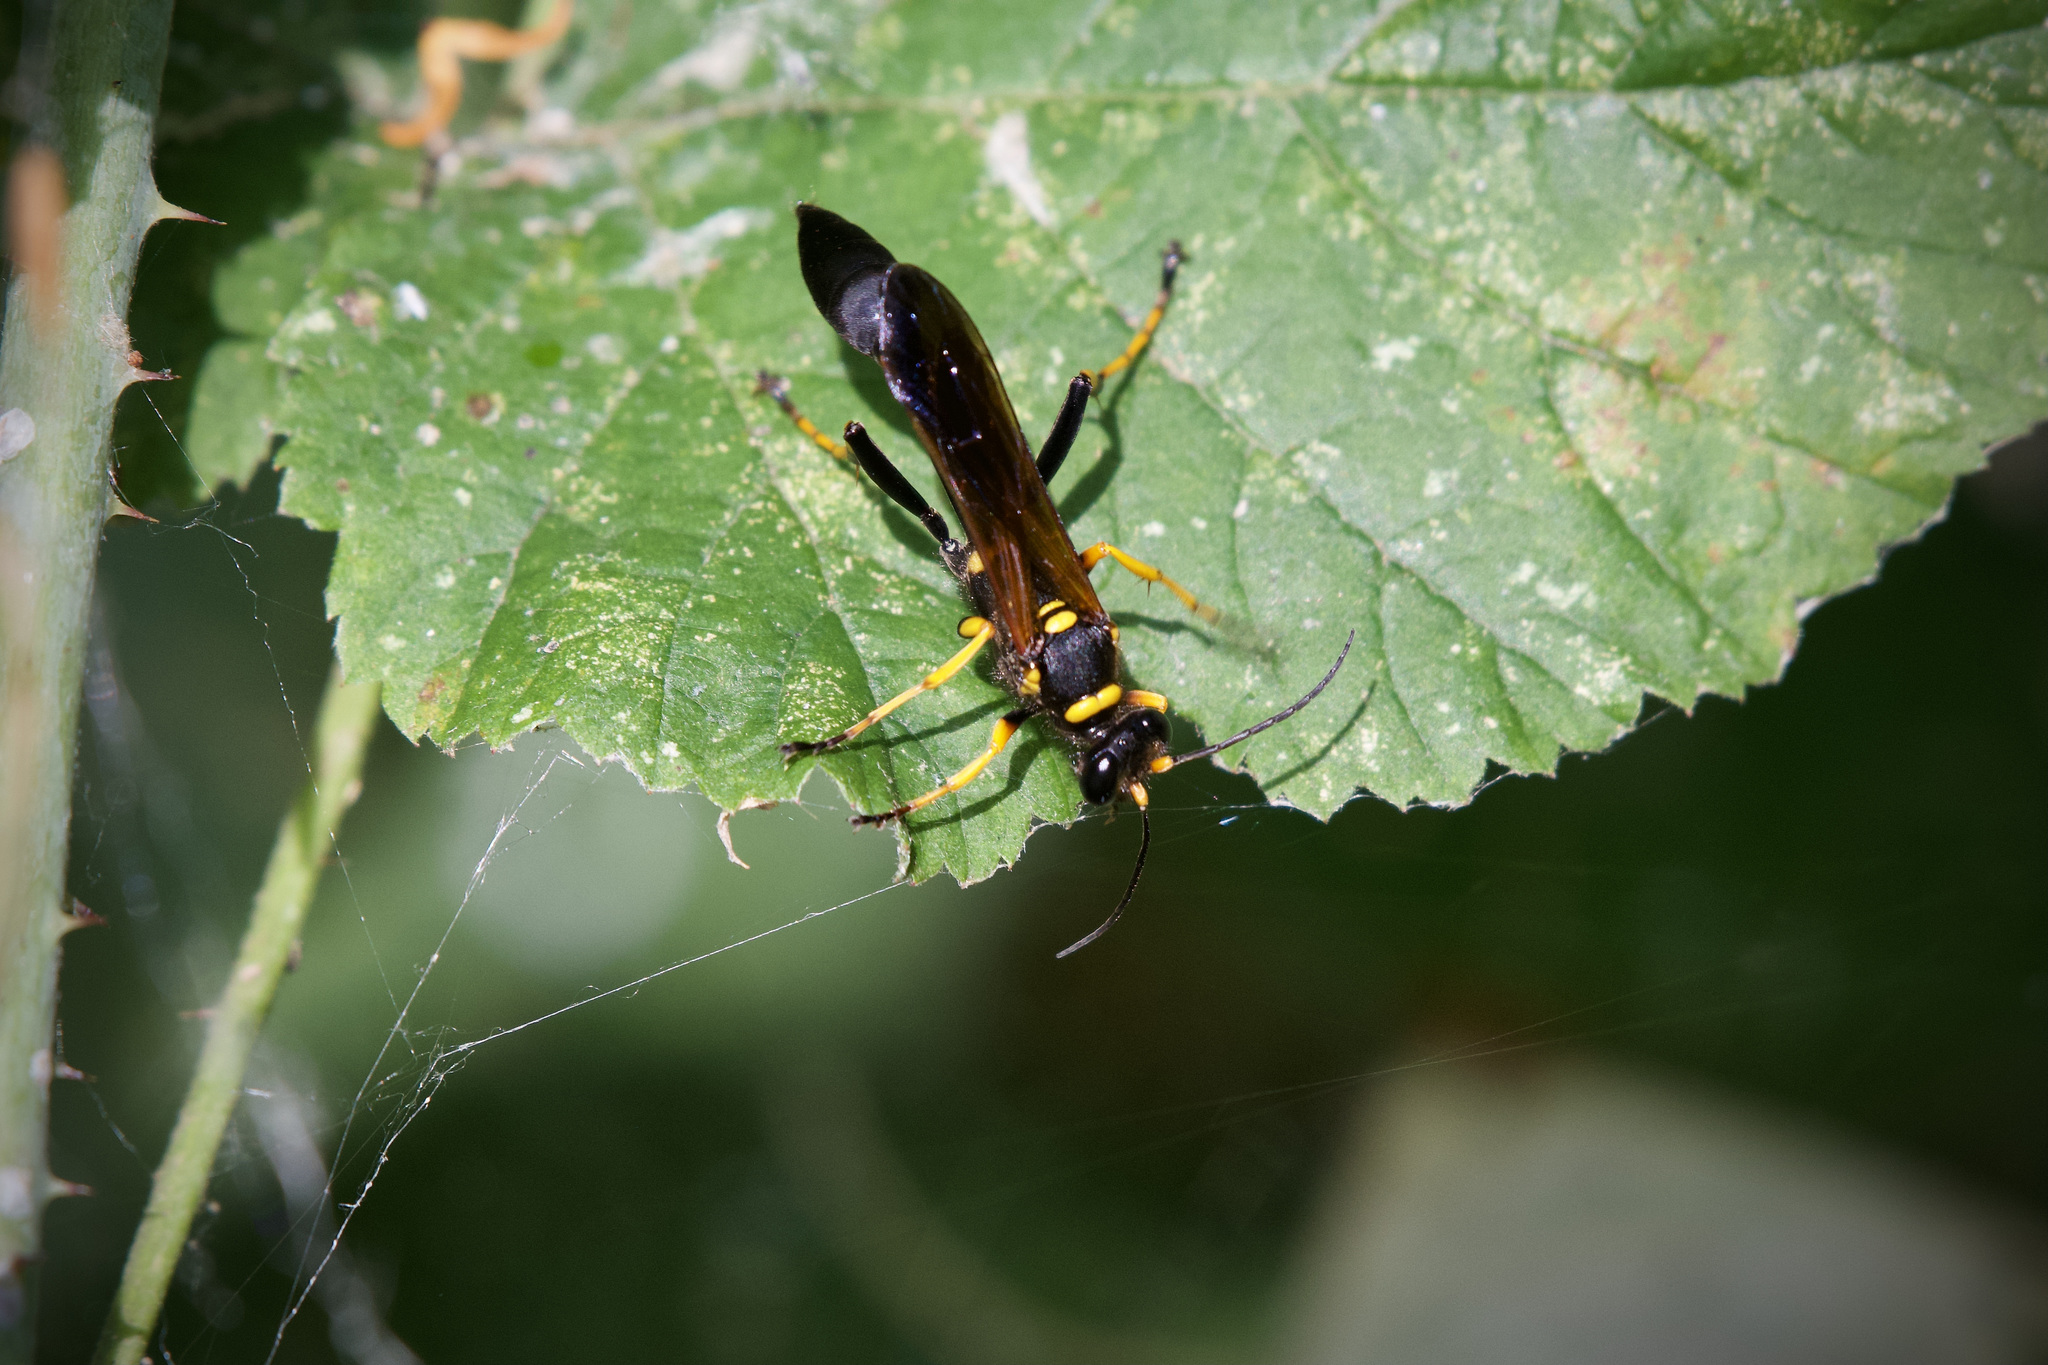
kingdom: Animalia
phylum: Arthropoda
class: Insecta
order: Hymenoptera
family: Sphecidae
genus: Sceliphron
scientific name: Sceliphron caementarium
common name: Mud dauber
